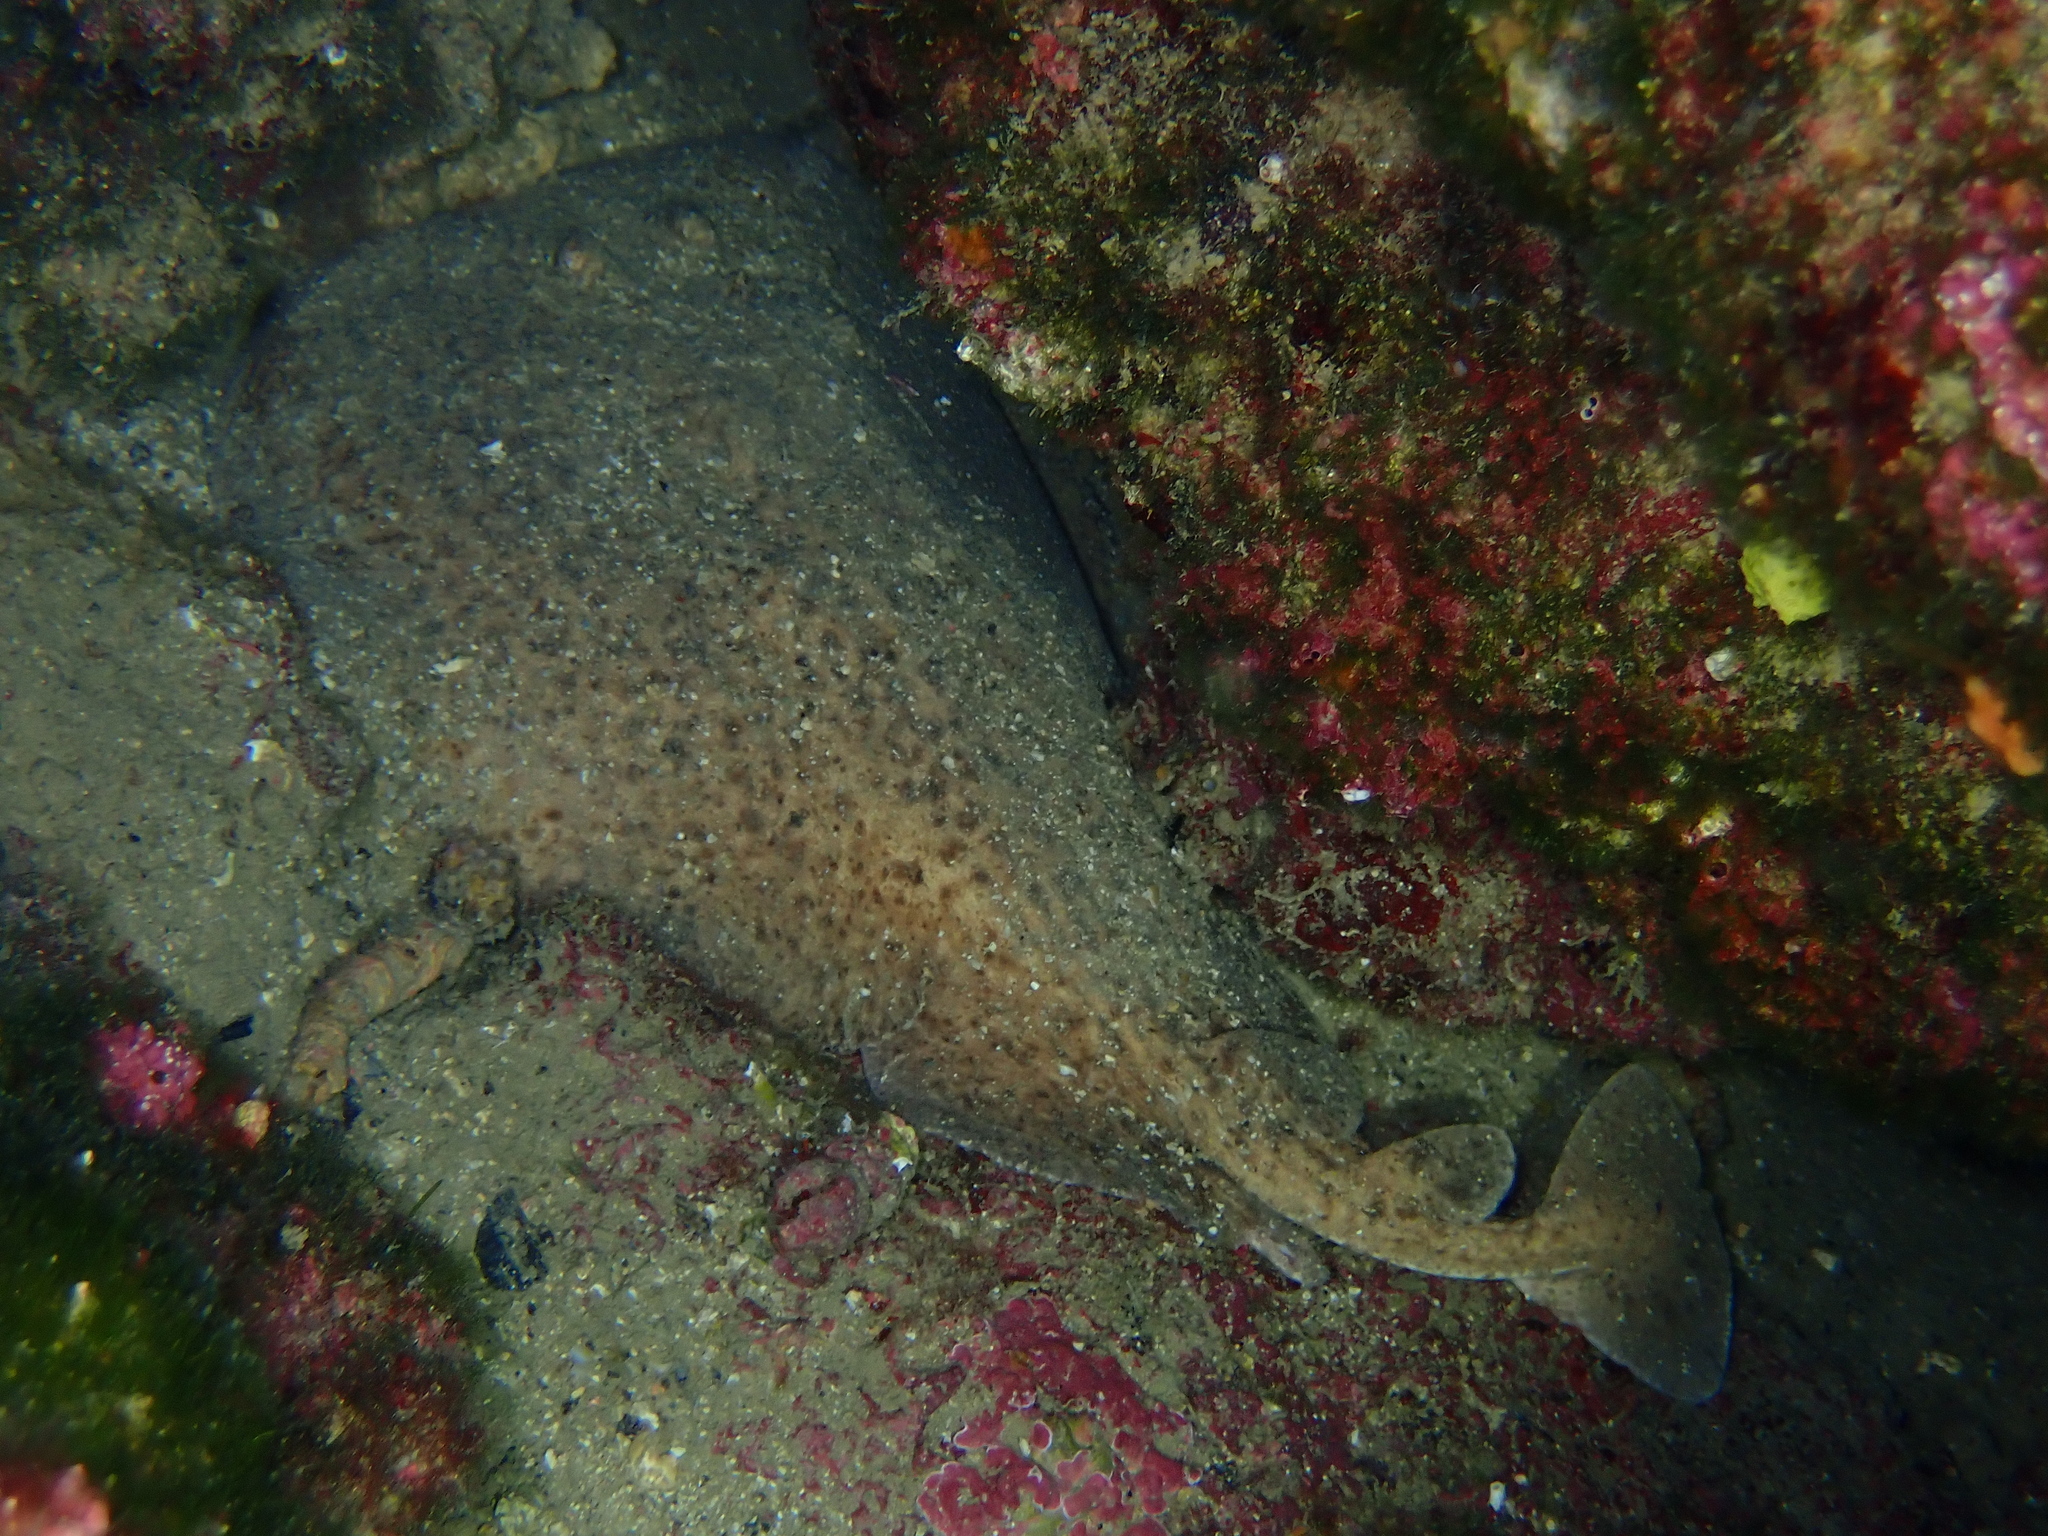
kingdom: Animalia
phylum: Chordata
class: Elasmobranchii
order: Torpediniformes
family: Torpedinidae
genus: Torpedo
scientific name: Torpedo marmorata
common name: Marbled electric ray
